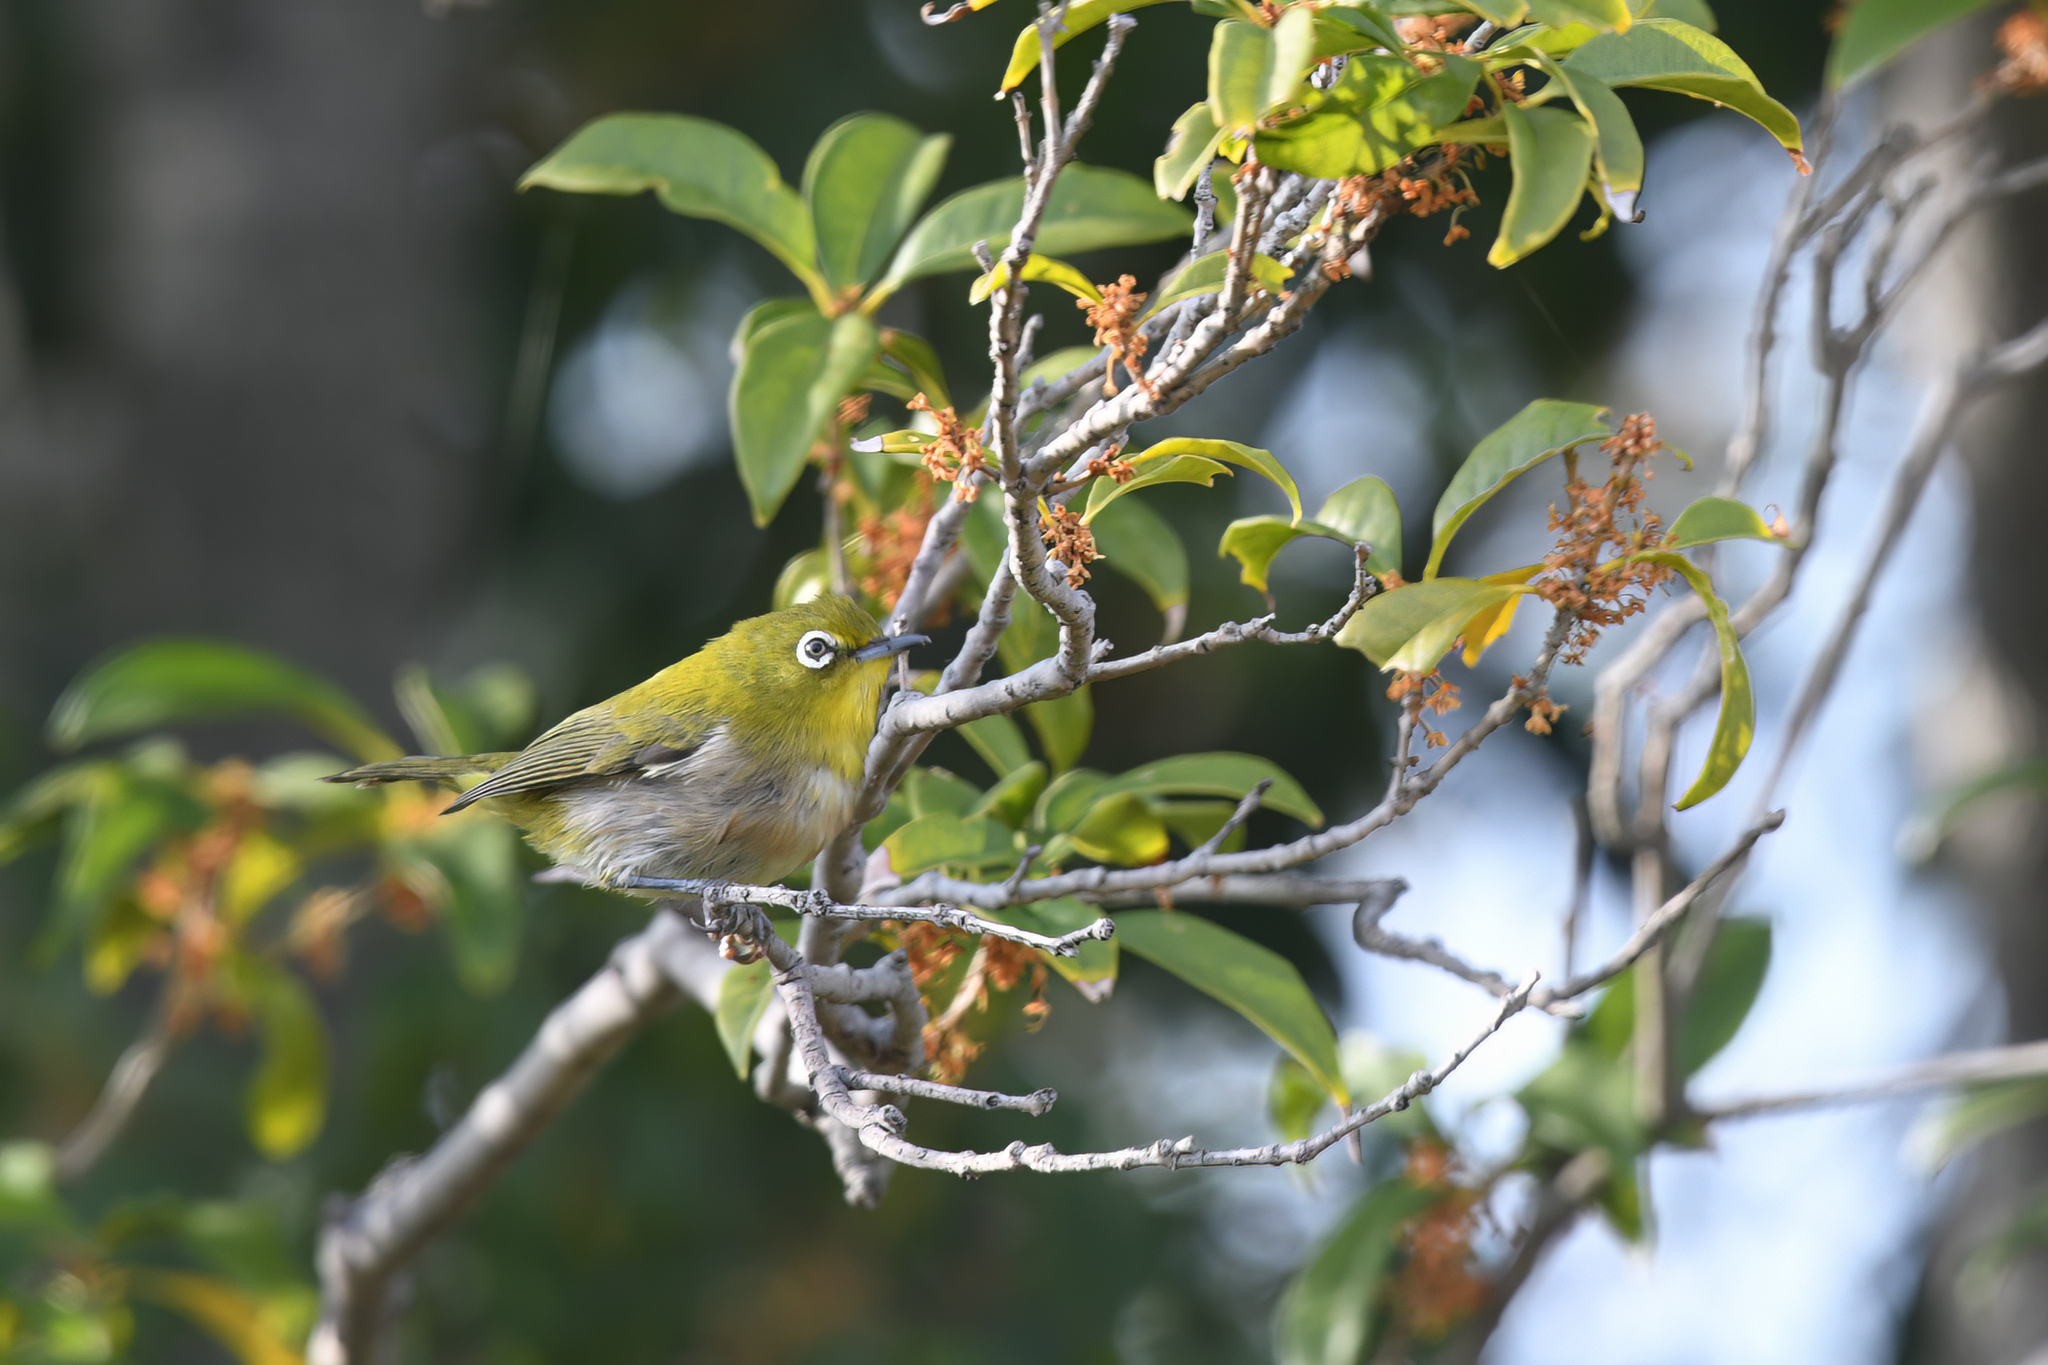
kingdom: Animalia
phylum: Chordata
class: Aves
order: Passeriformes
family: Zosteropidae
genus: Zosterops
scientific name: Zosterops japonicus
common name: Japanese white-eye
